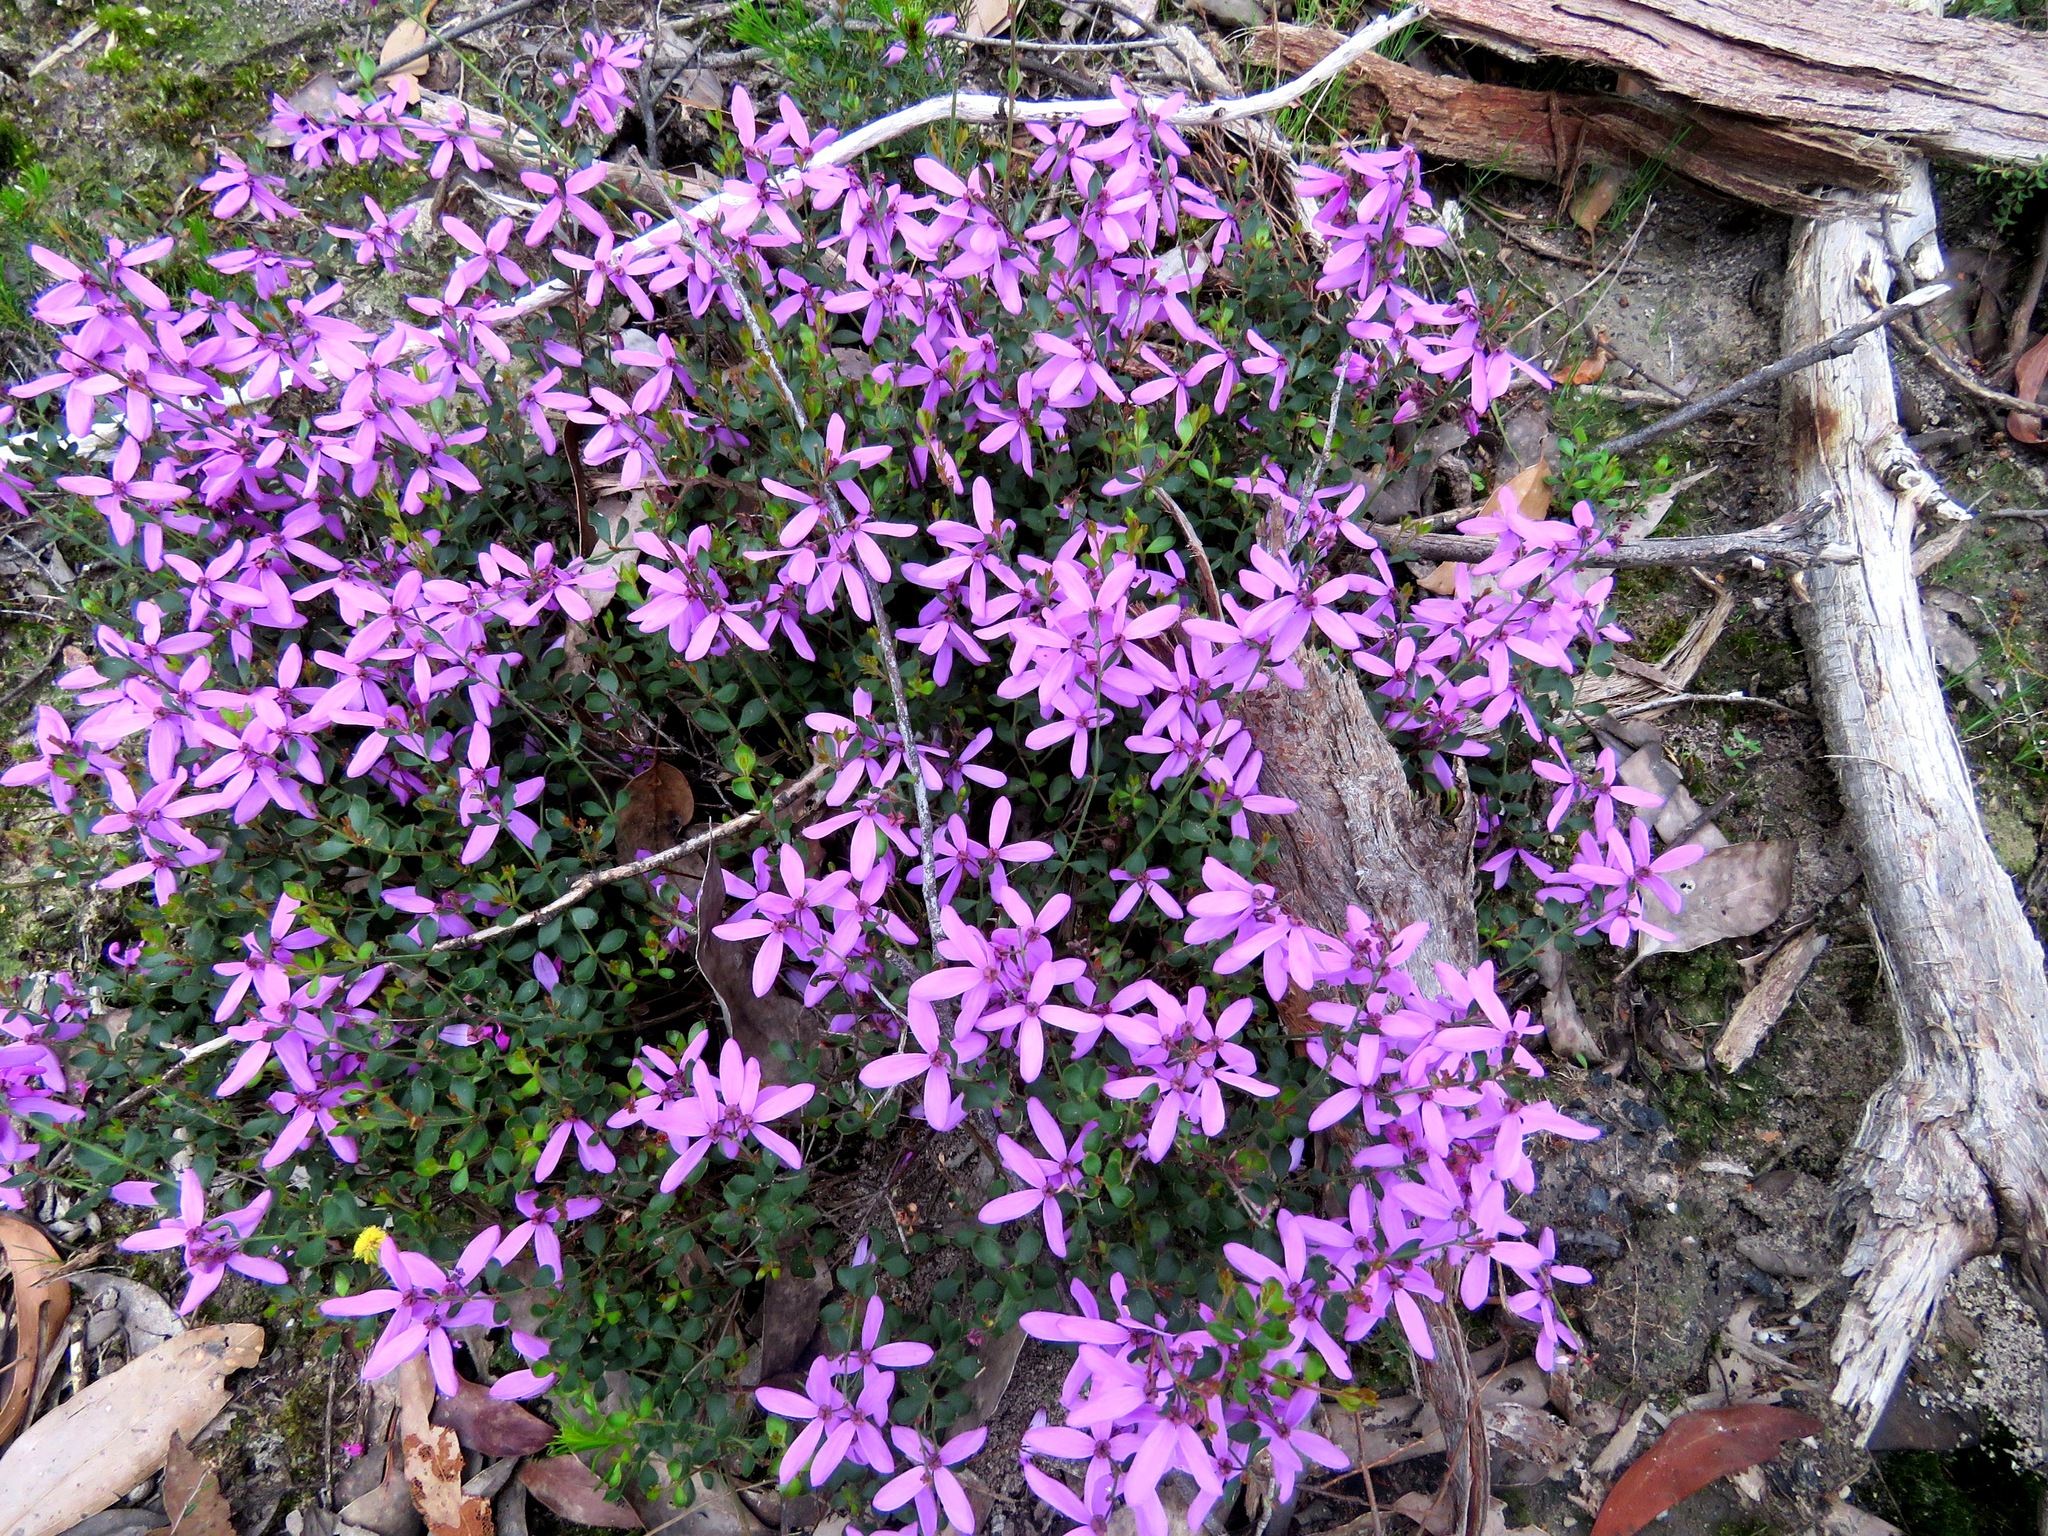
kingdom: Plantae
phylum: Tracheophyta
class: Magnoliopsida
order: Oxalidales
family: Elaeocarpaceae
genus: Tetratheca
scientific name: Tetratheca ciliata
